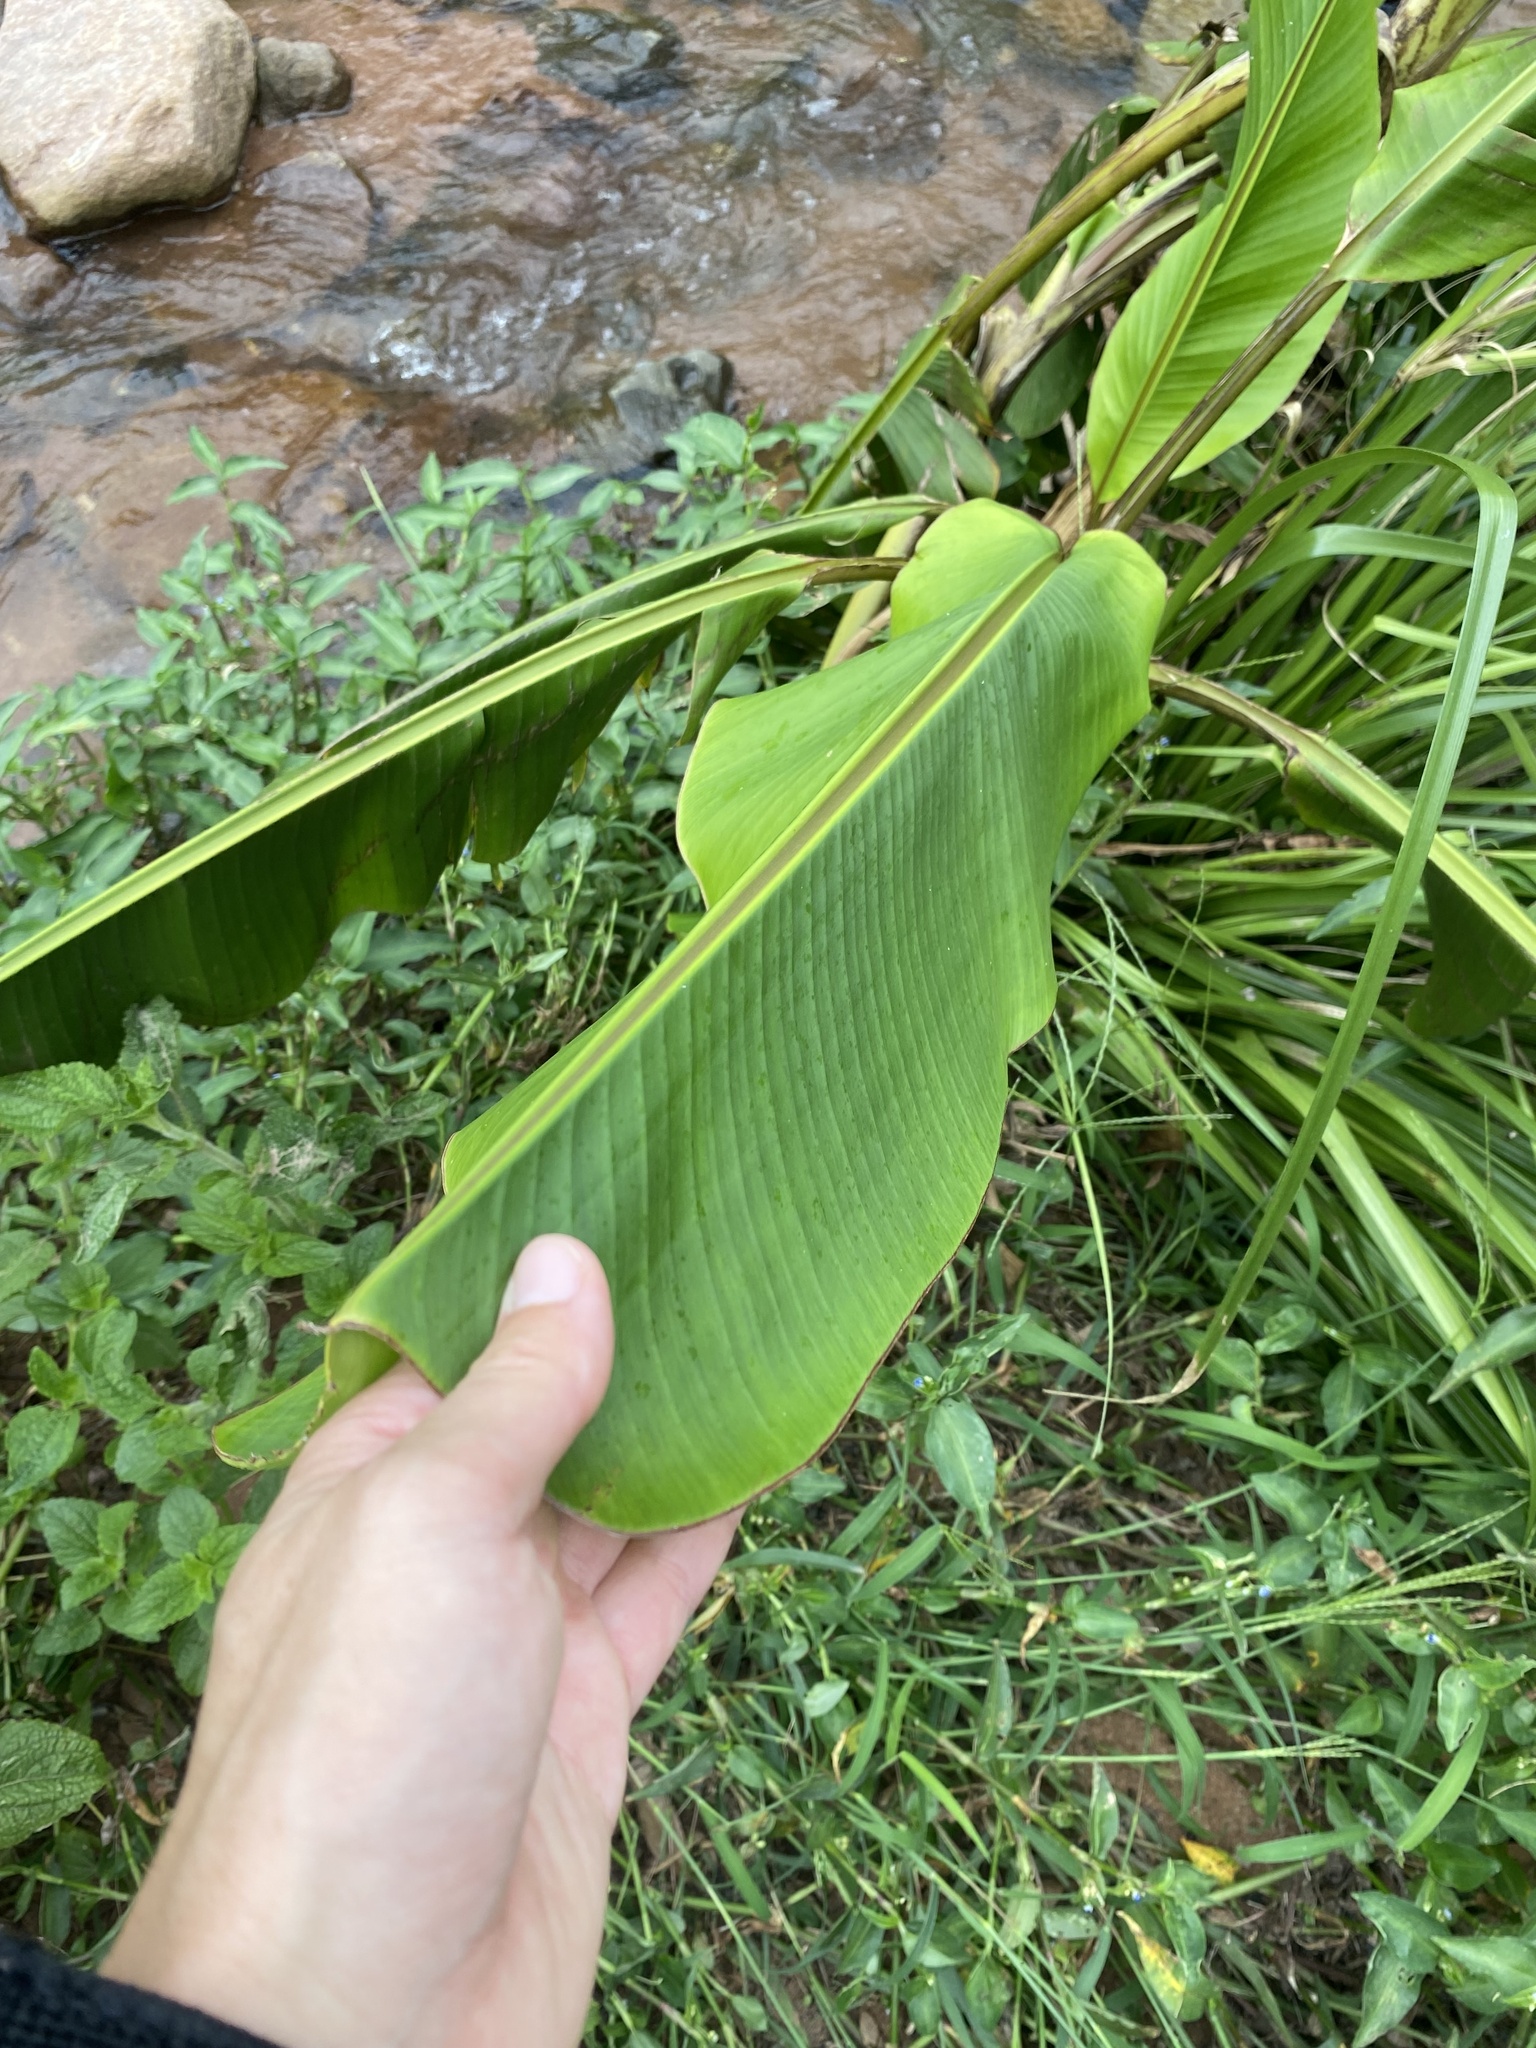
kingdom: Plantae
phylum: Tracheophyta
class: Liliopsida
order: Zingiberales
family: Musaceae
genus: Musa
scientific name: Musa velutina
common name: Pink velvet banana
